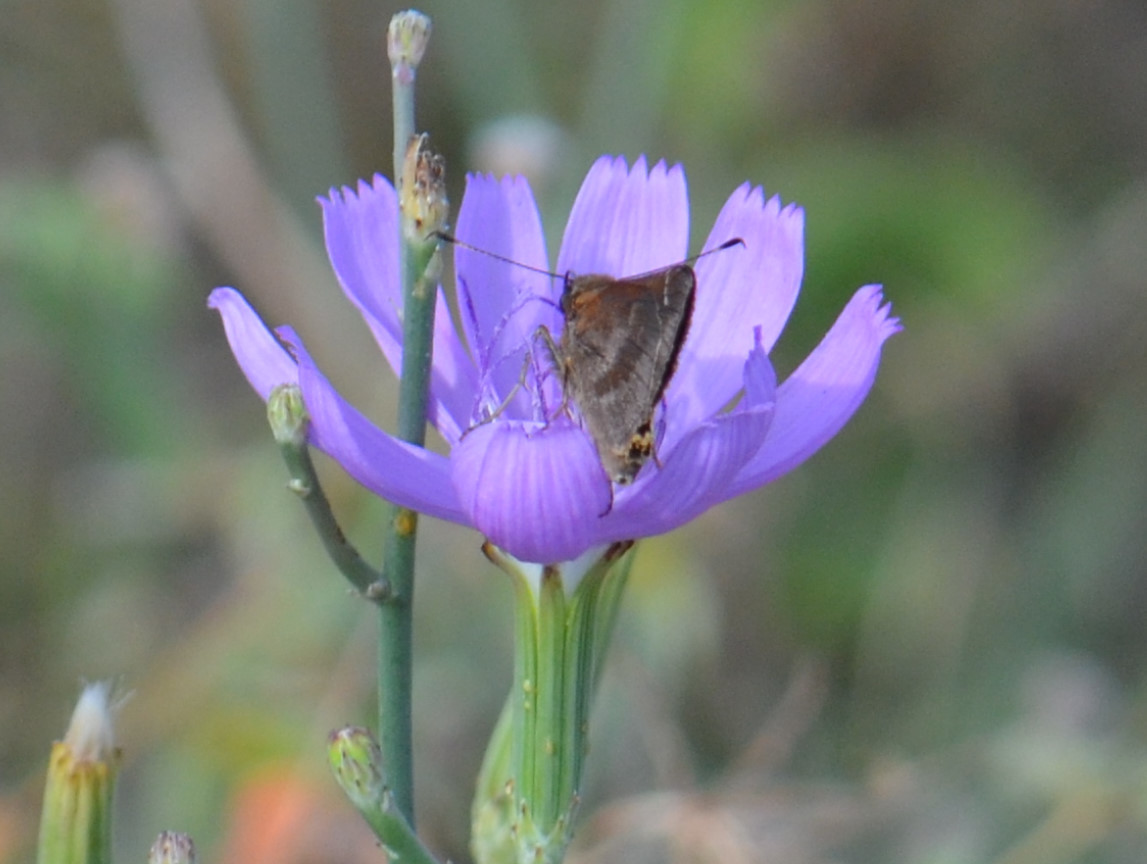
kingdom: Animalia
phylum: Arthropoda
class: Insecta
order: Lepidoptera
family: Hesperiidae
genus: Lerema
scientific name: Lerema accius
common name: Clouded skipper
